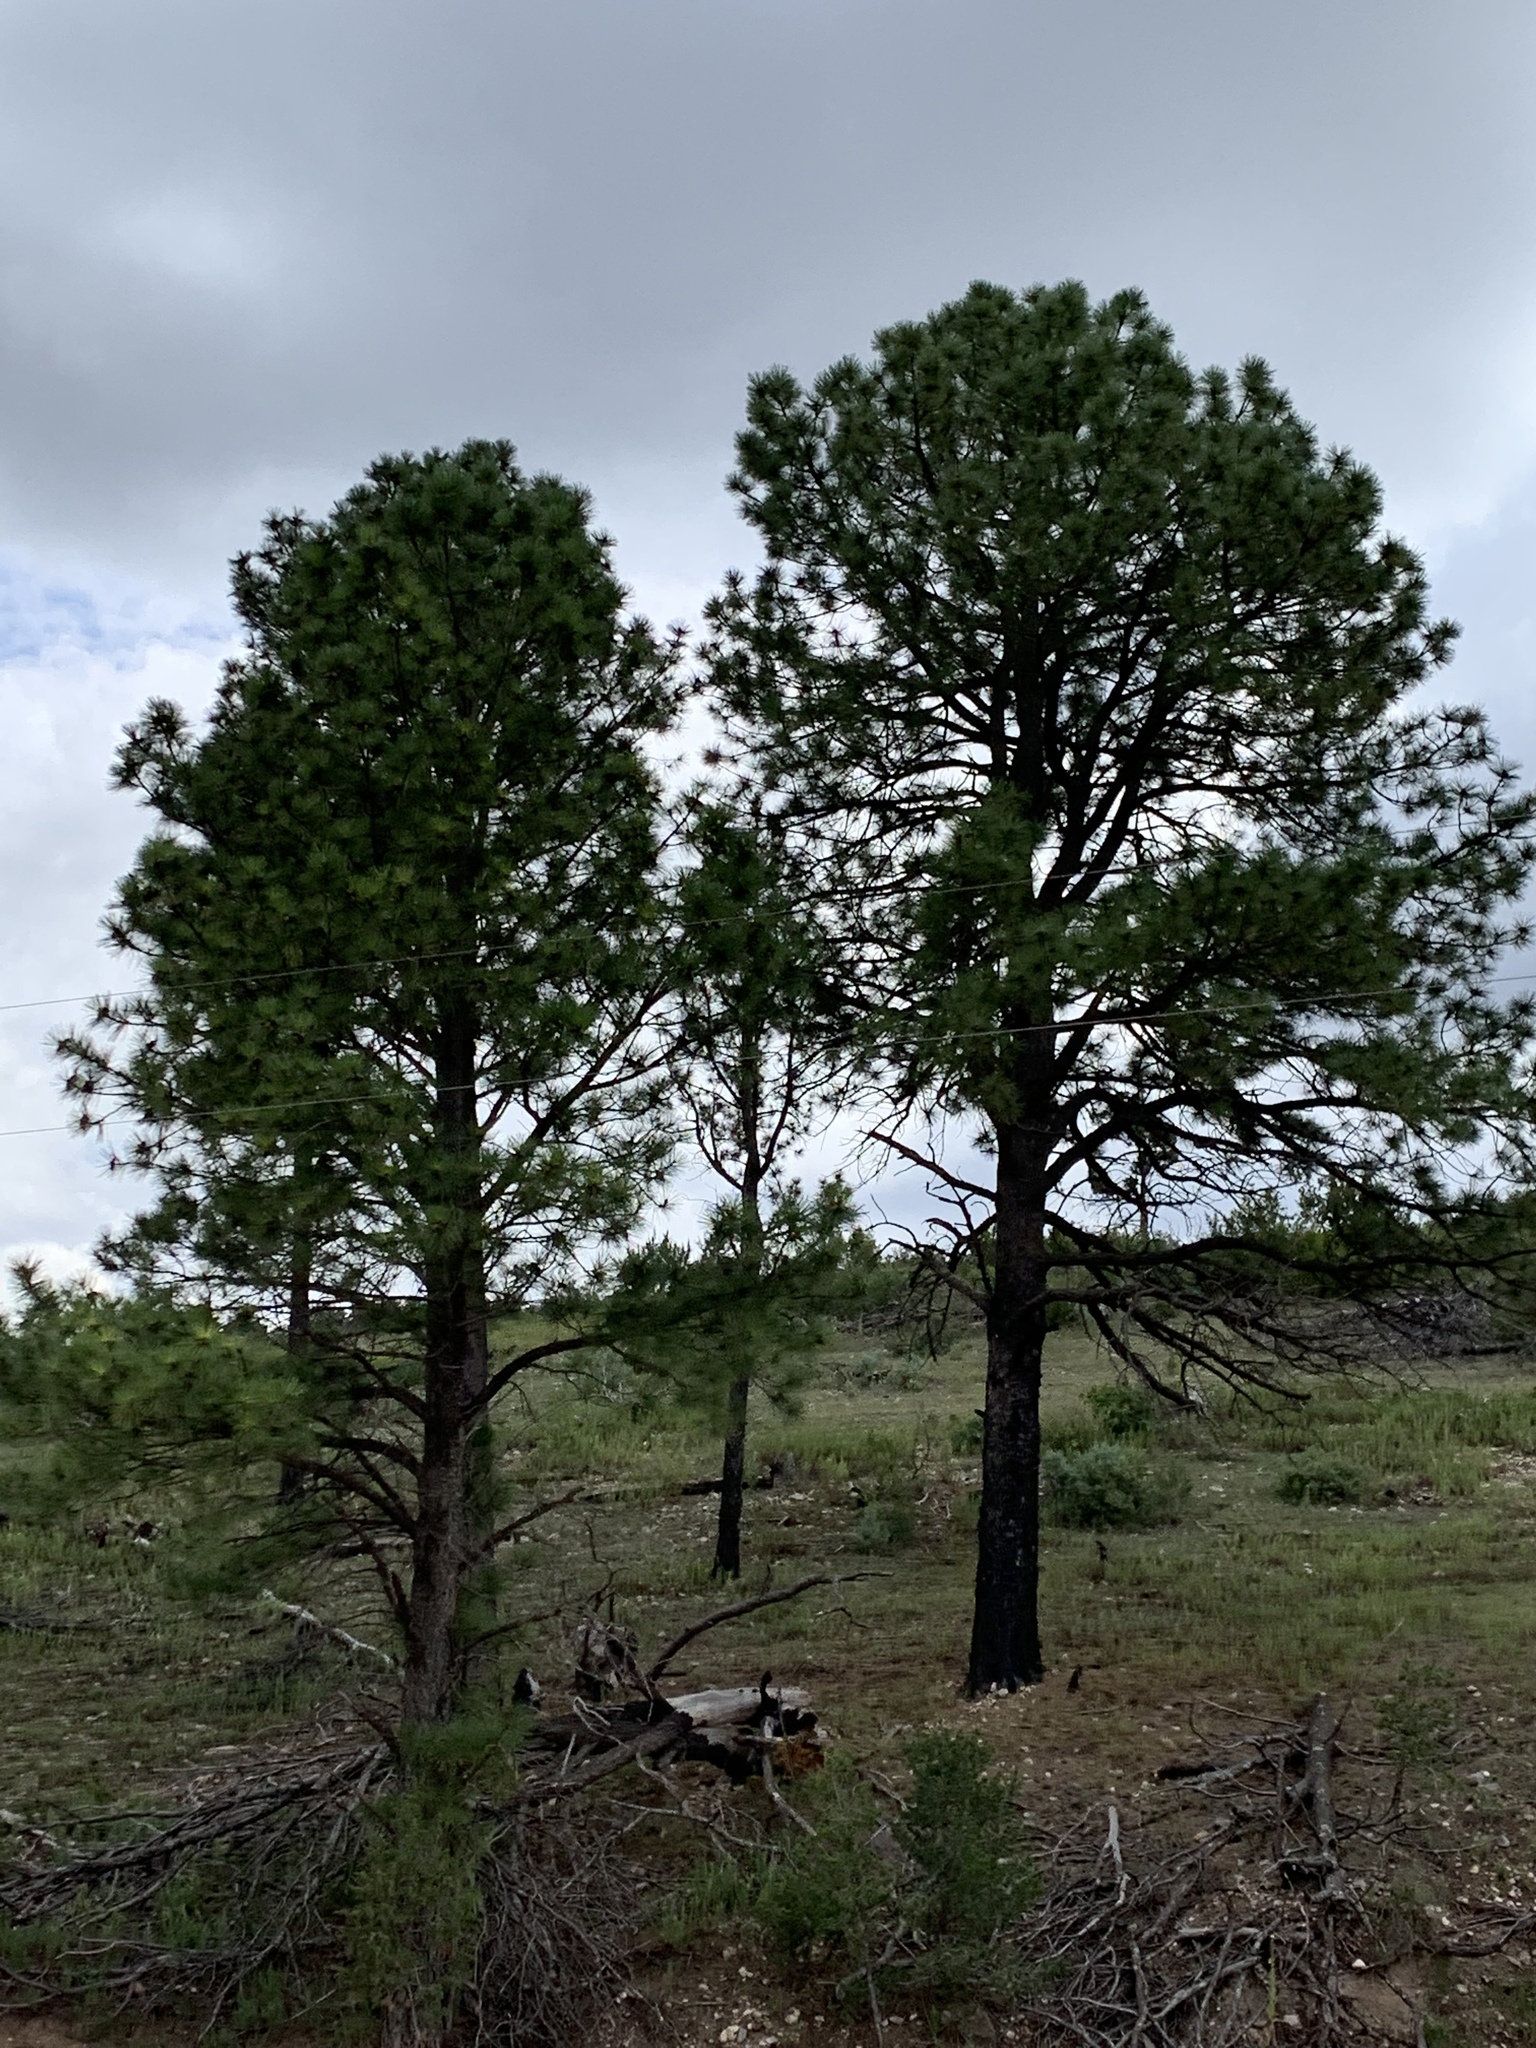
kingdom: Plantae
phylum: Tracheophyta
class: Pinopsida
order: Pinales
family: Pinaceae
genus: Pinus
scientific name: Pinus ponderosa
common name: Western yellow-pine
